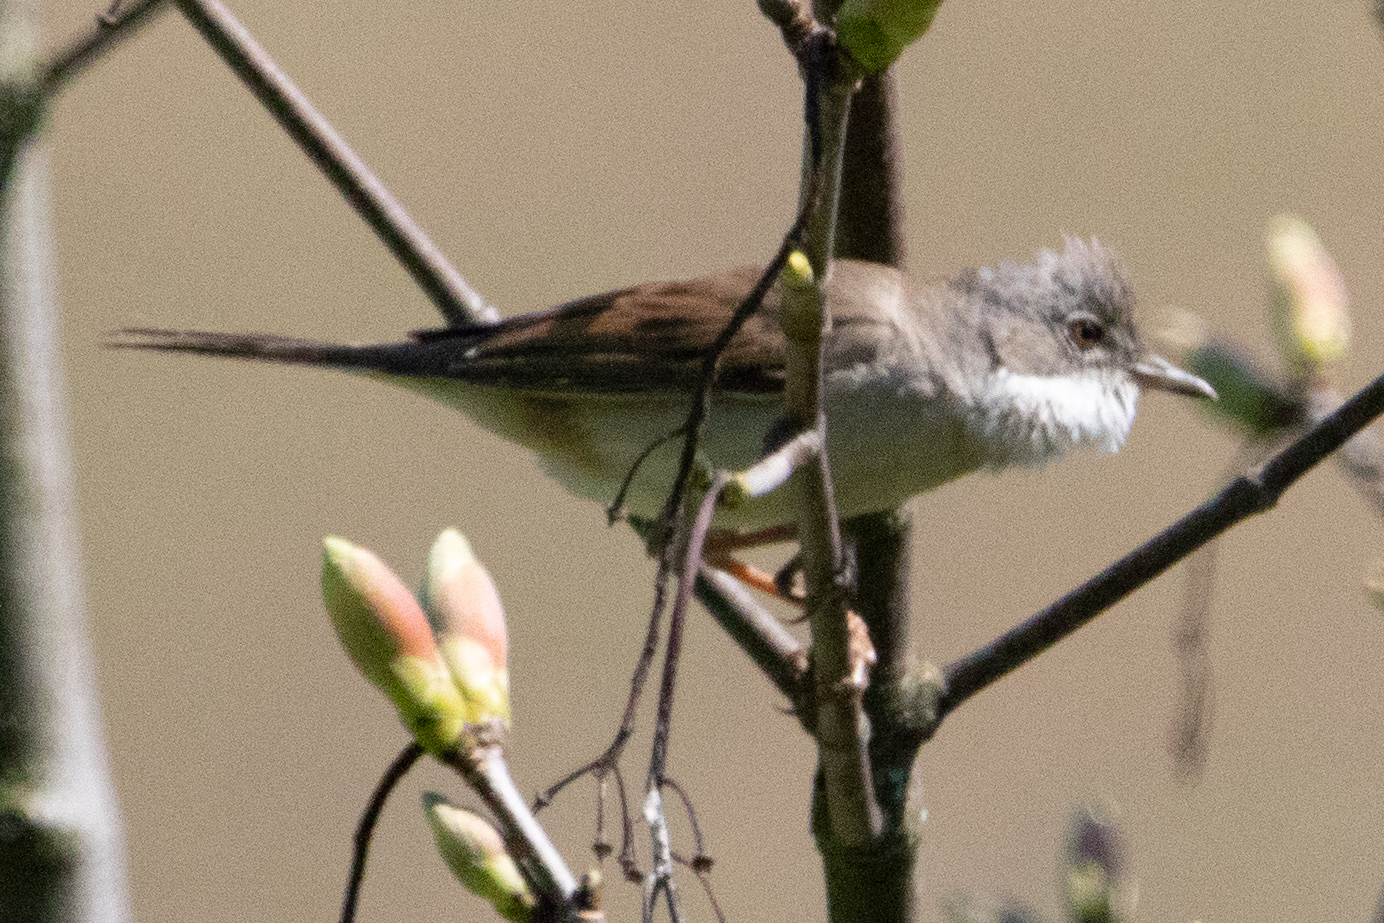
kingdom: Animalia
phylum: Chordata
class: Aves
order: Passeriformes
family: Sylviidae
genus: Sylvia
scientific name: Sylvia communis
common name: Common whitethroat
